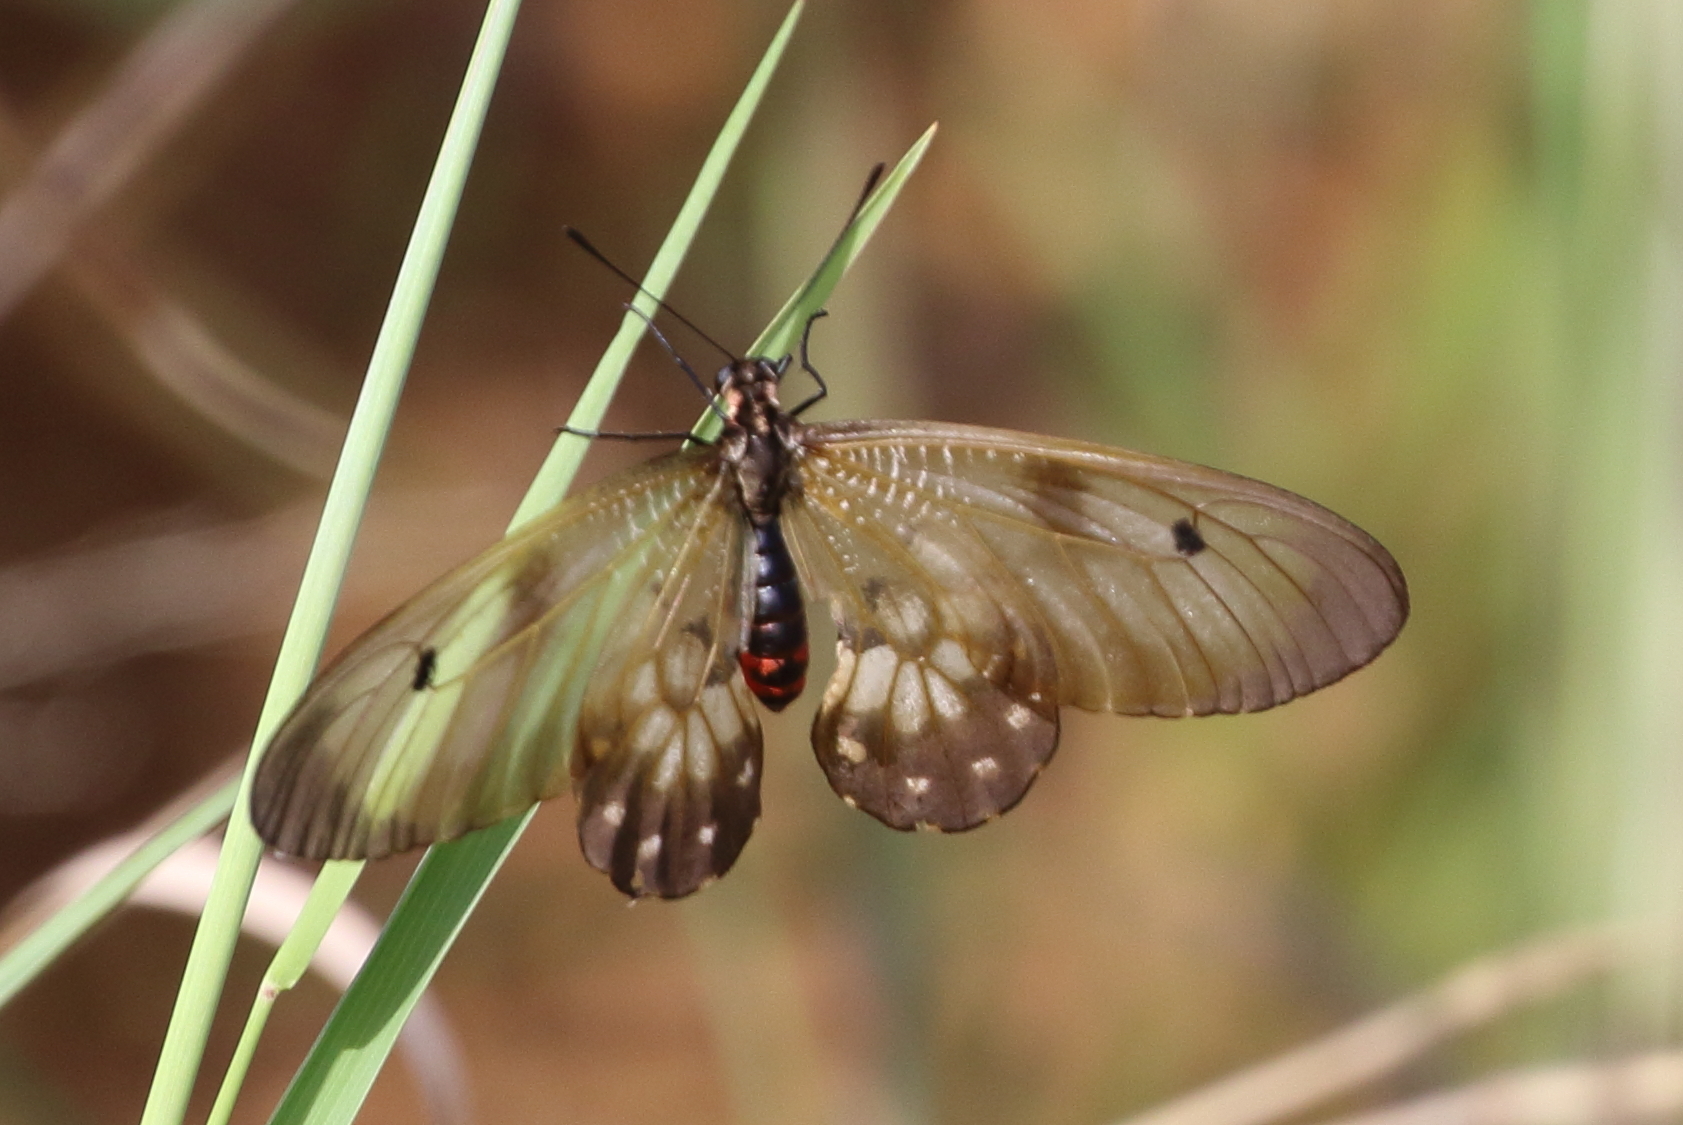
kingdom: Animalia
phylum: Arthropoda
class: Insecta
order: Lepidoptera
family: Papilionidae
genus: Cressida
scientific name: Cressida cressida
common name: Big greasy
